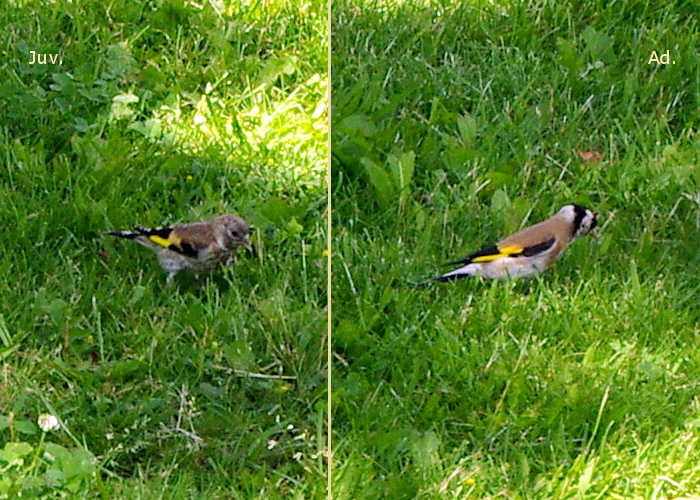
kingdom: Animalia
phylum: Chordata
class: Aves
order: Passeriformes
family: Fringillidae
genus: Carduelis
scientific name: Carduelis carduelis
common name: European goldfinch
